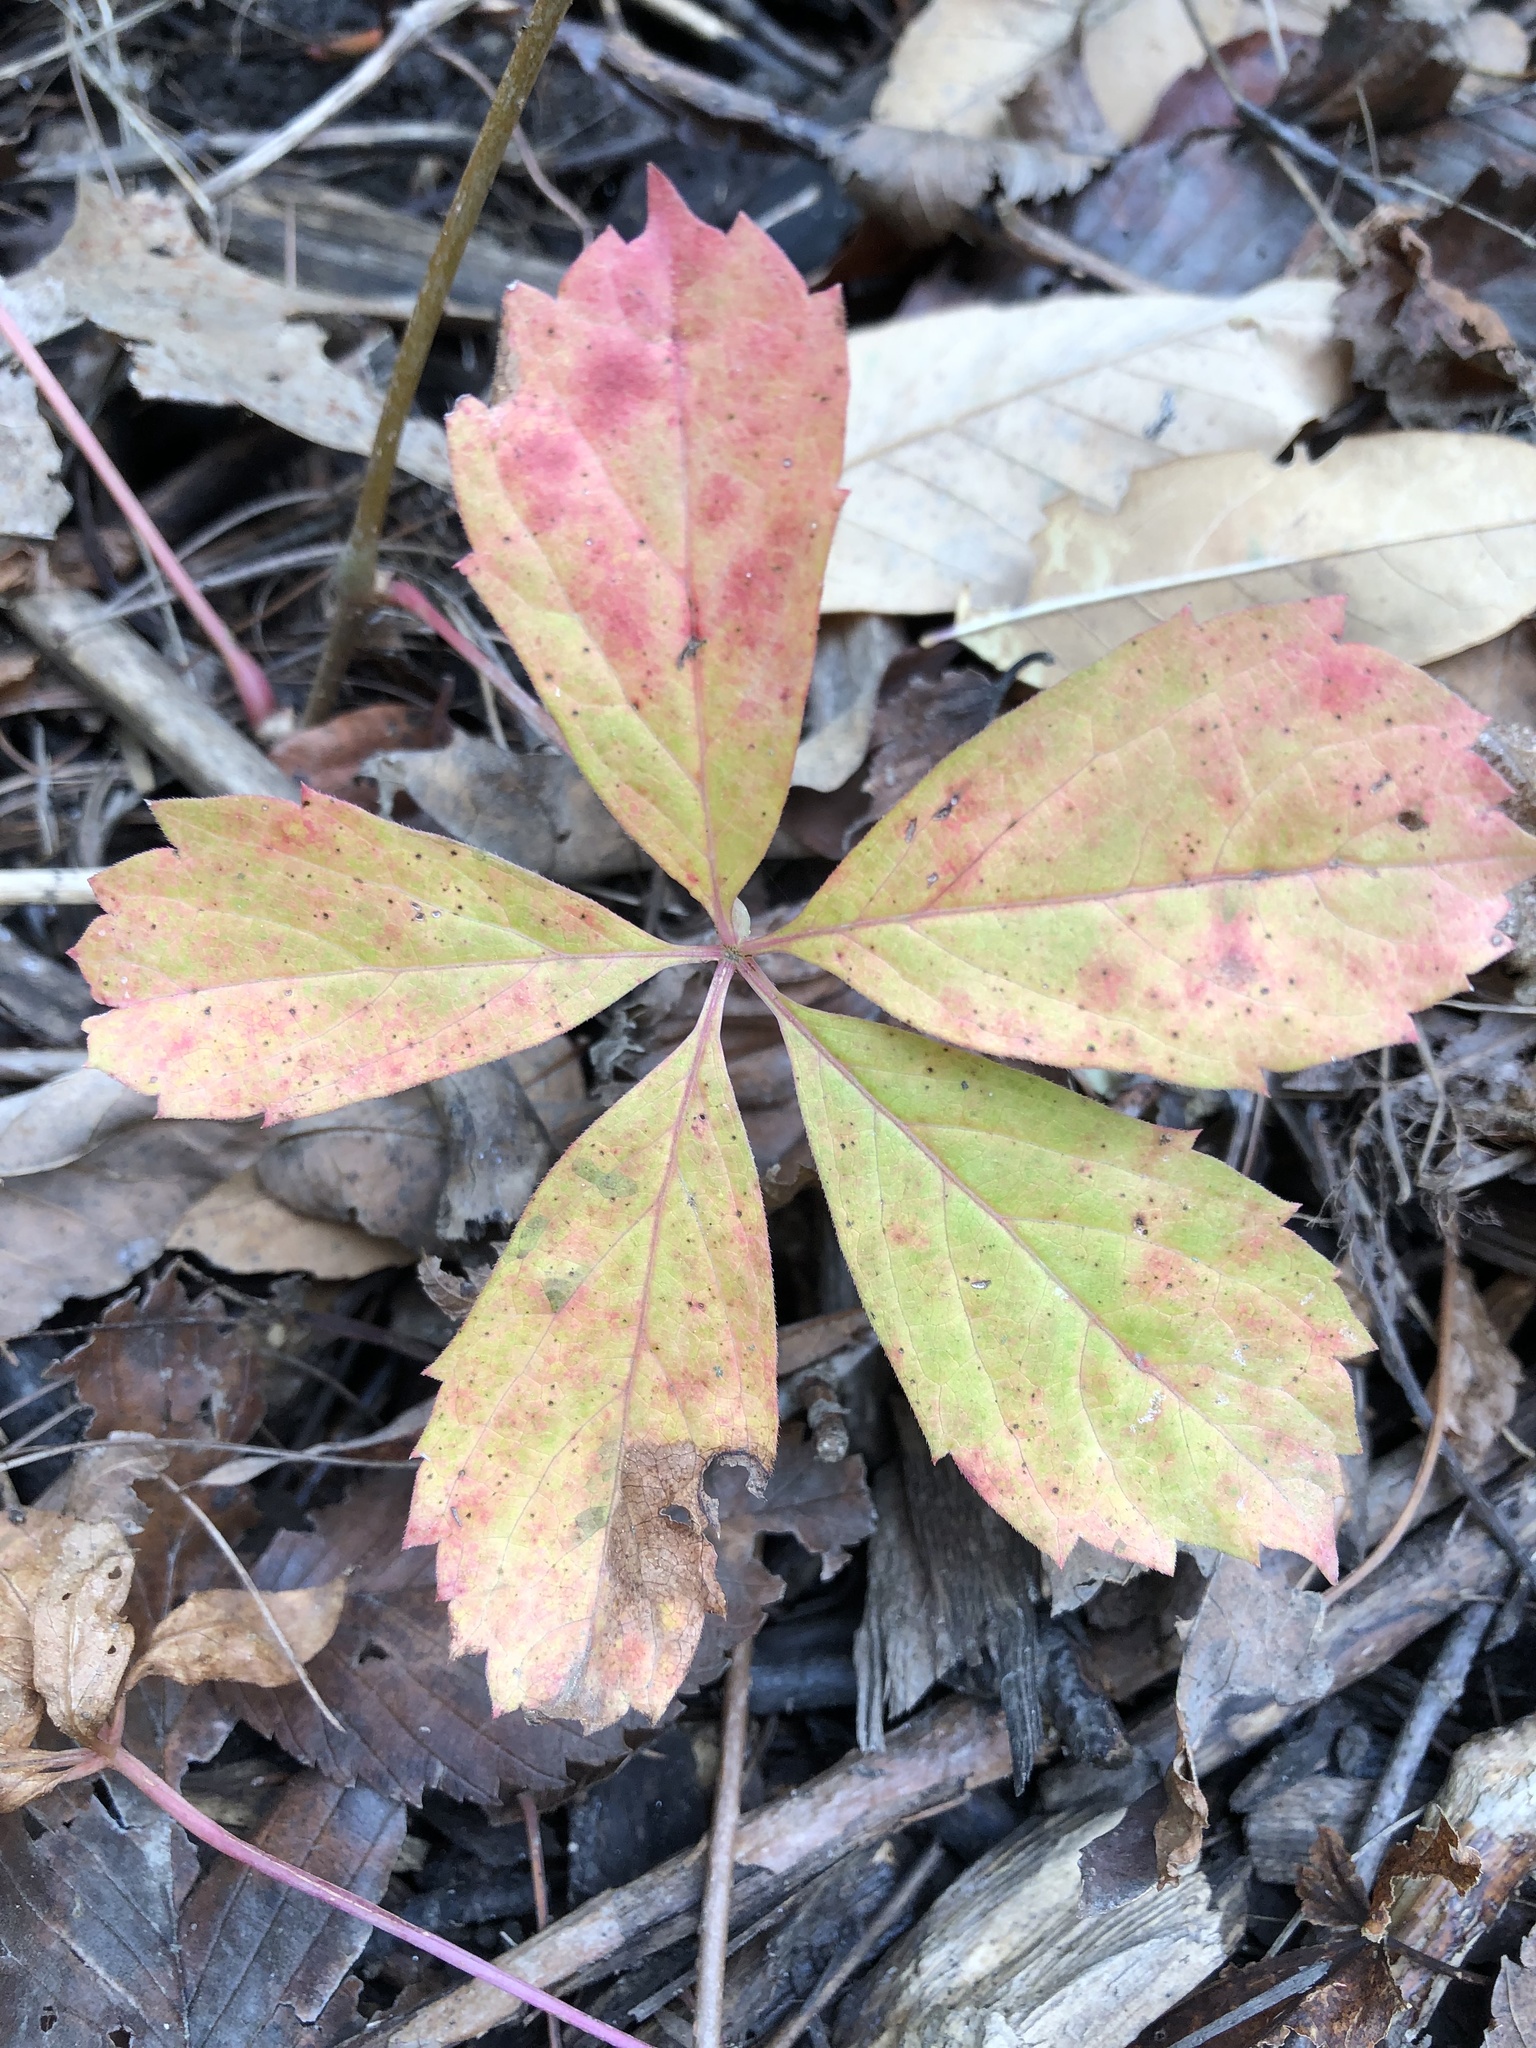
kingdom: Plantae
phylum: Tracheophyta
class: Magnoliopsida
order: Vitales
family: Vitaceae
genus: Parthenocissus
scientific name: Parthenocissus quinquefolia
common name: Virginia-creeper
